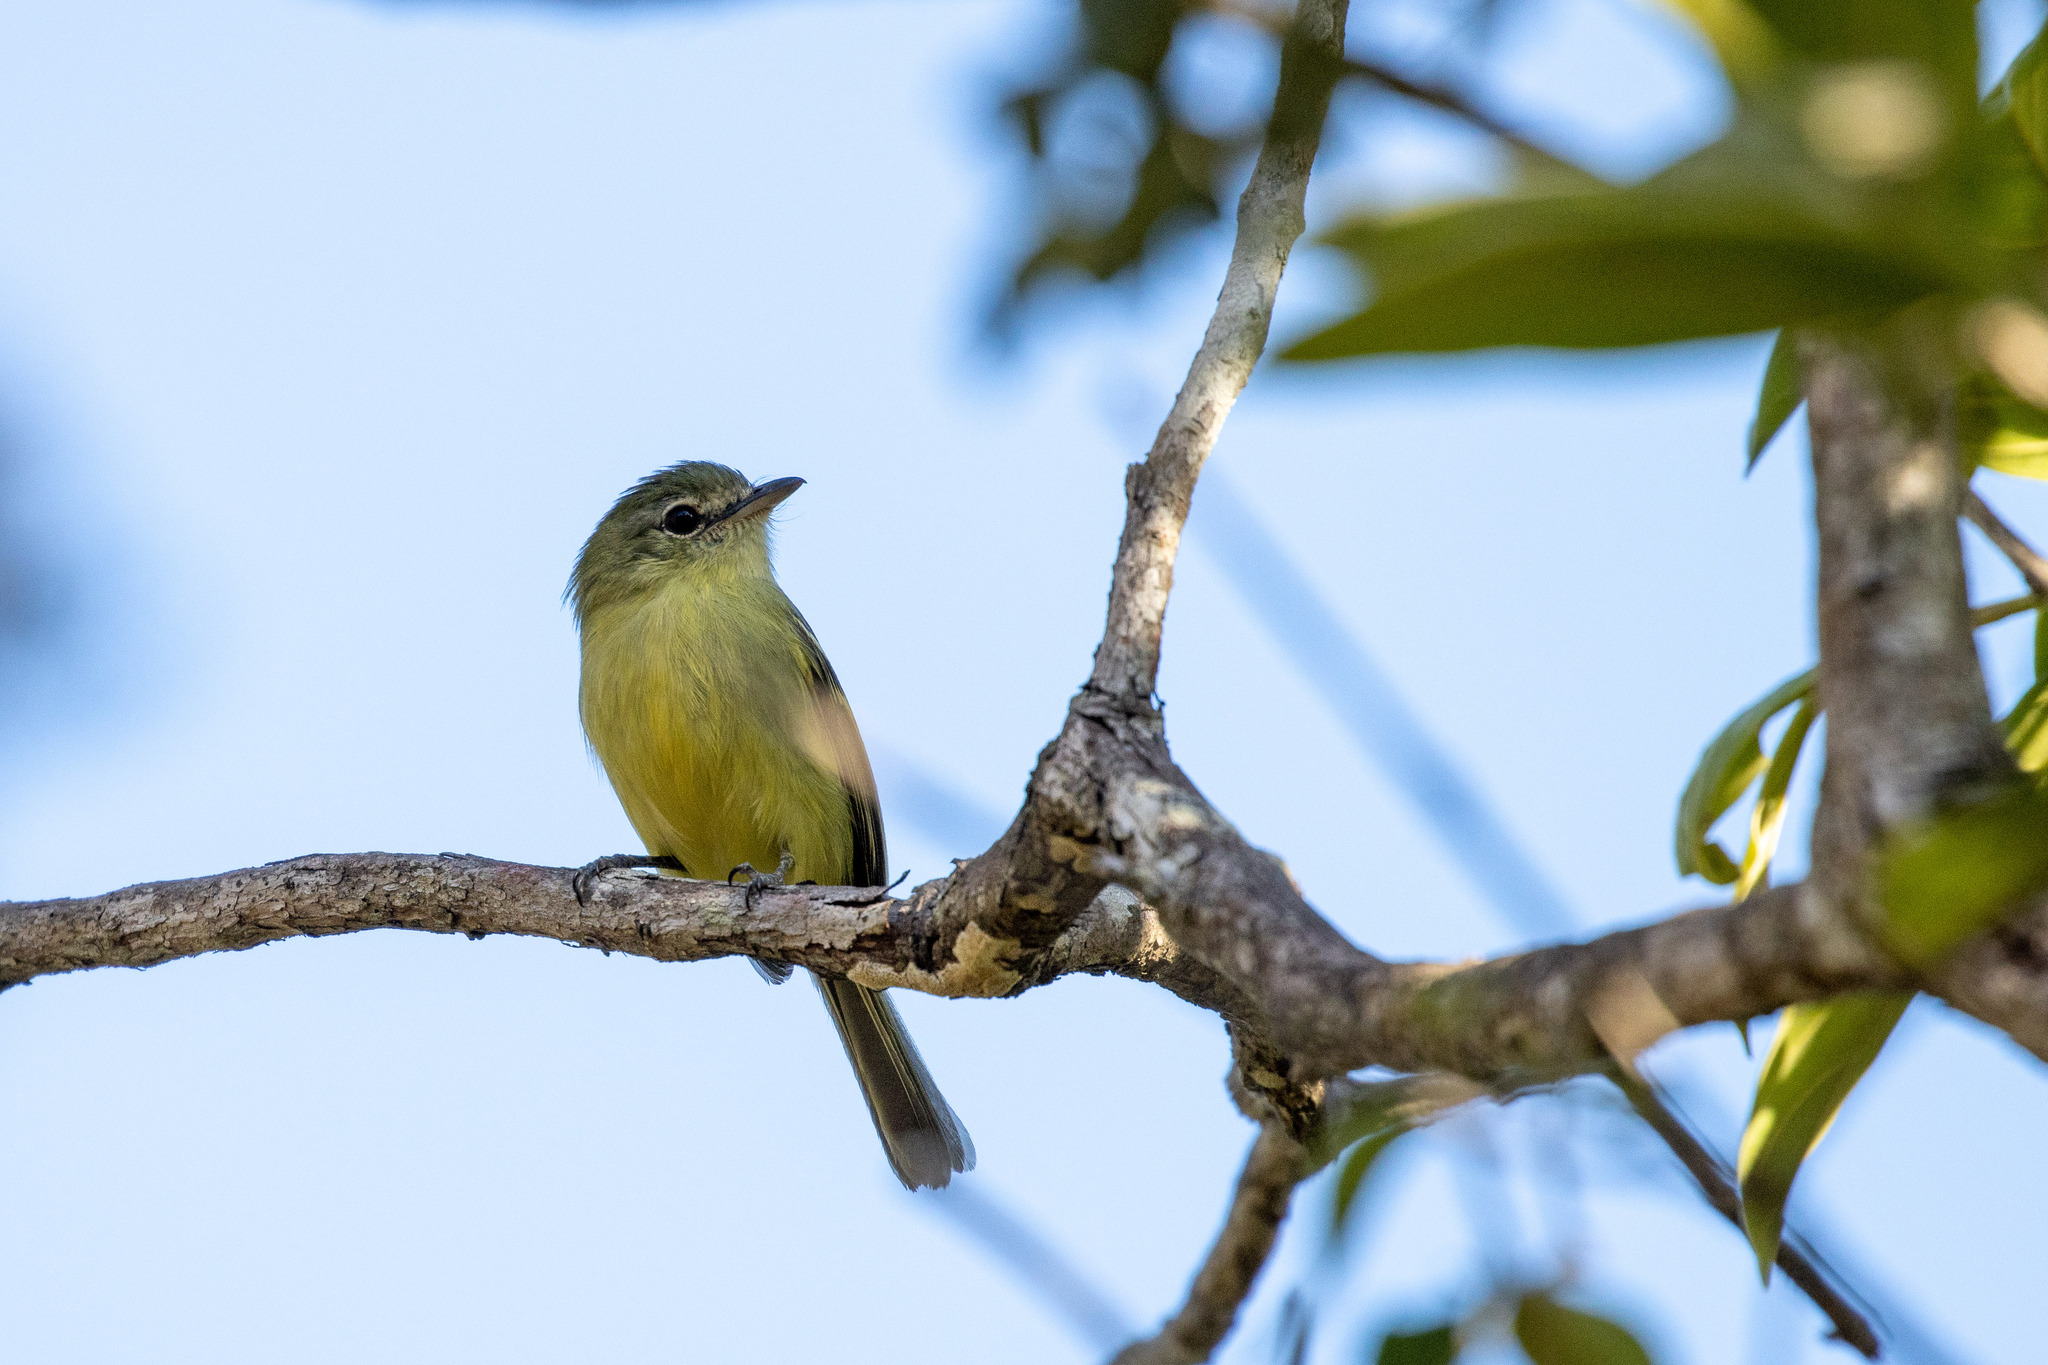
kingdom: Animalia
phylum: Chordata
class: Aves
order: Passeriformes
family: Tyrannidae
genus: Tolmomyias
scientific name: Tolmomyias sulphurescens
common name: Yellow-olive flycatcher
